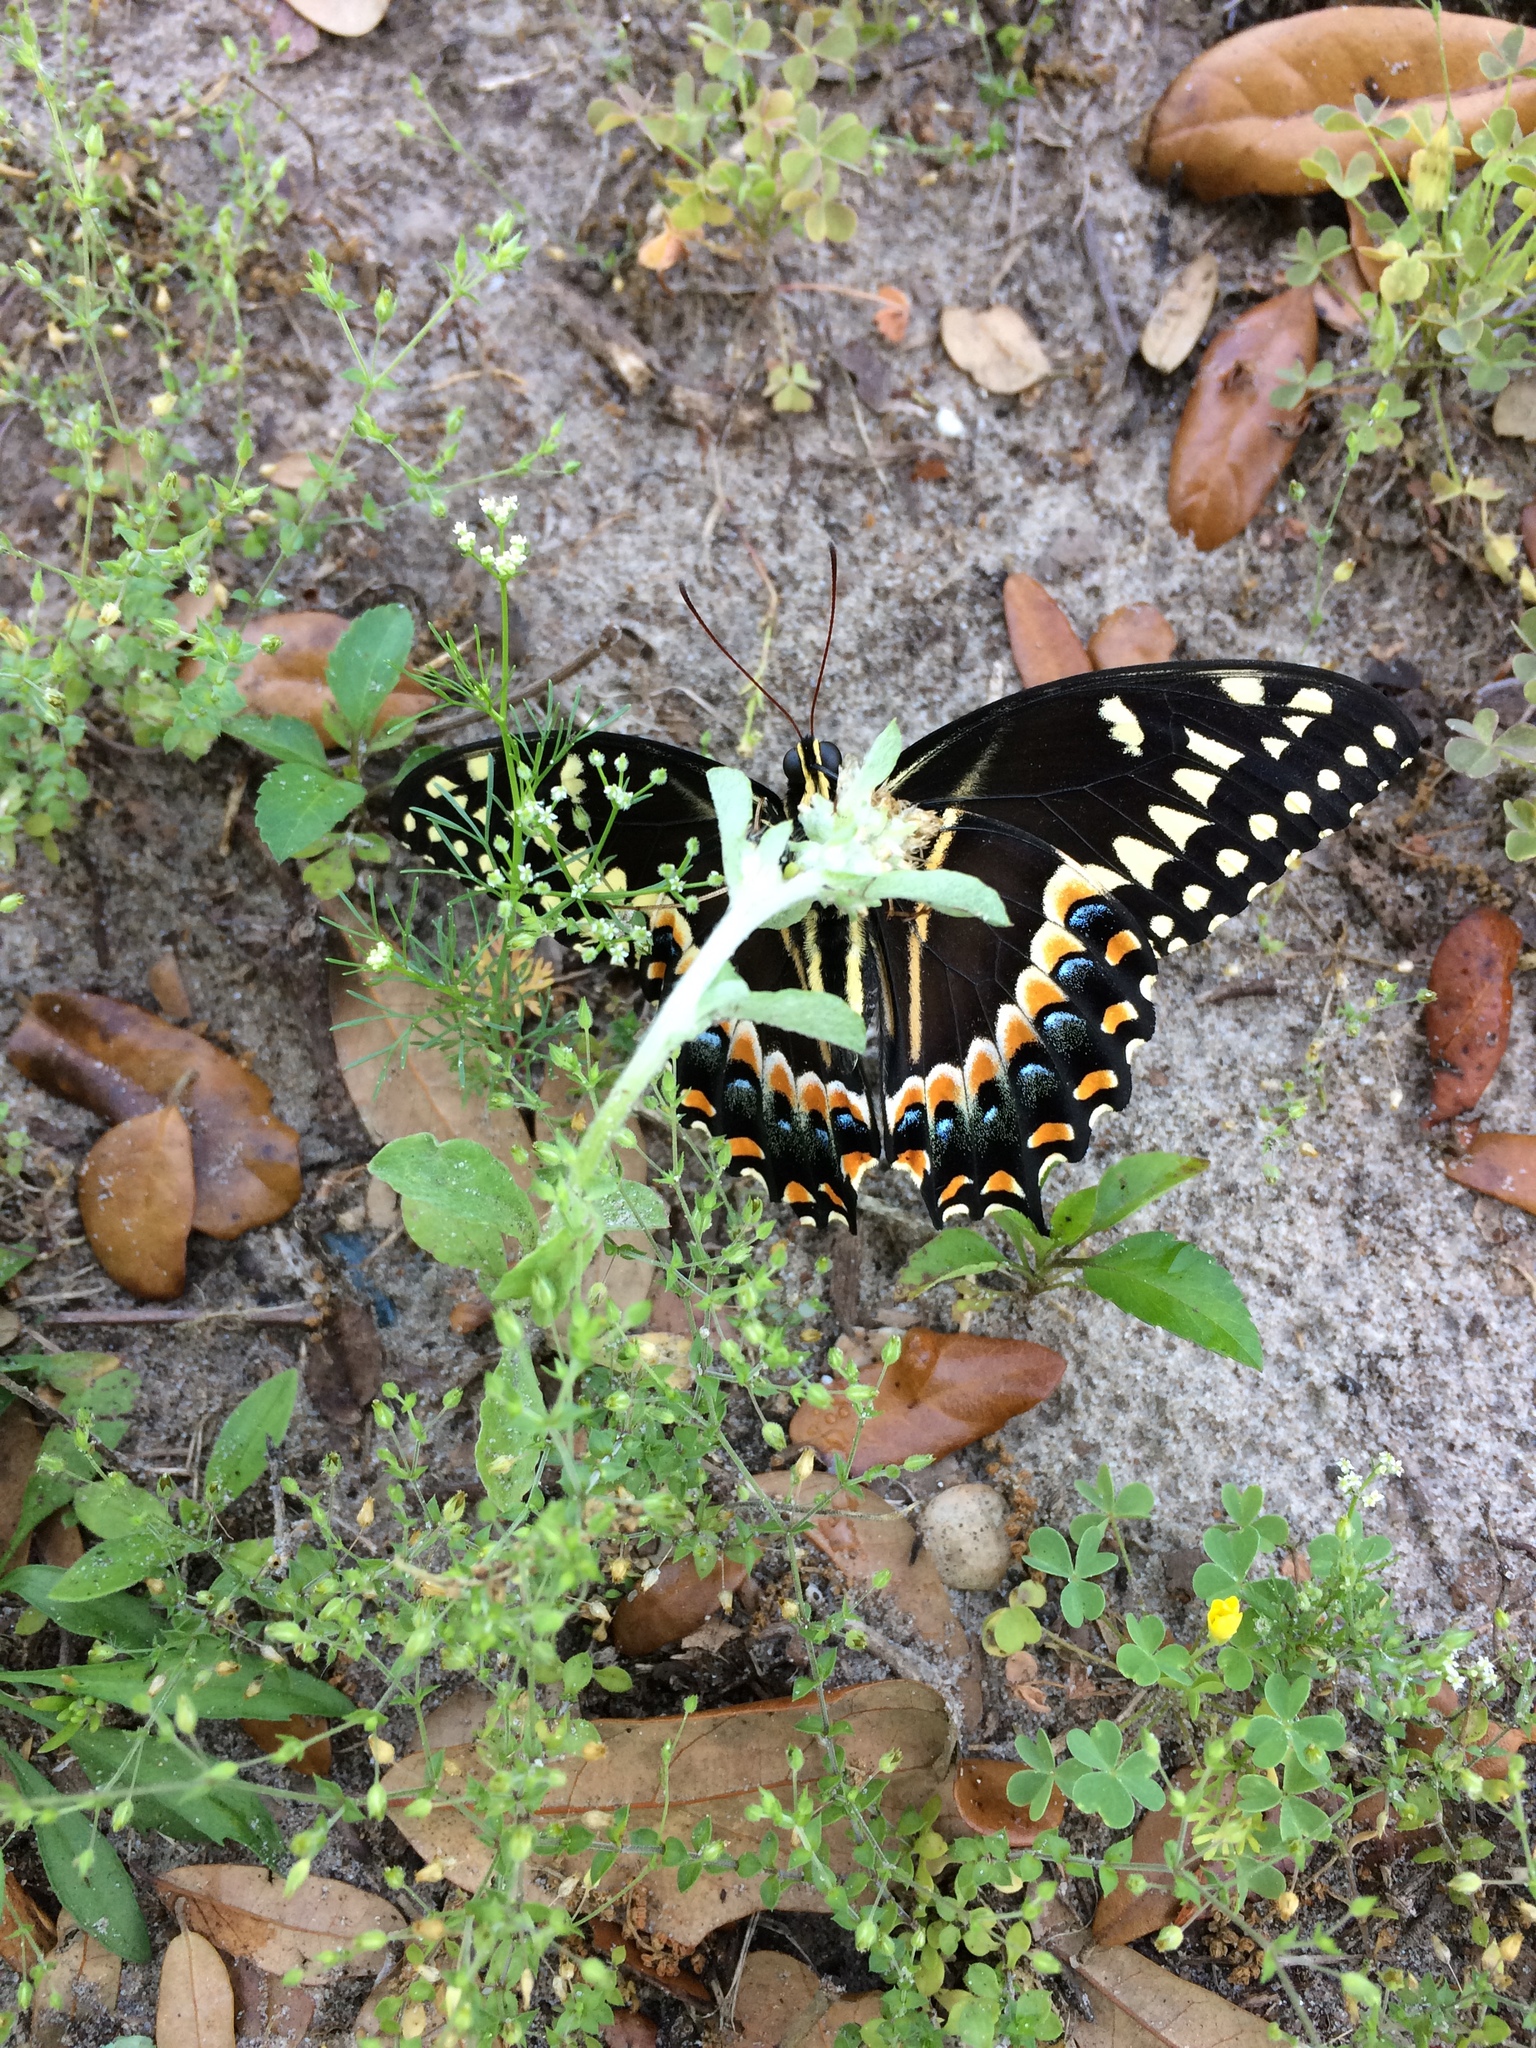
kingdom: Animalia
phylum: Arthropoda
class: Insecta
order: Lepidoptera
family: Papilionidae
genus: Papilio
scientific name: Papilio palamedes
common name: Palamedes swallowtail
